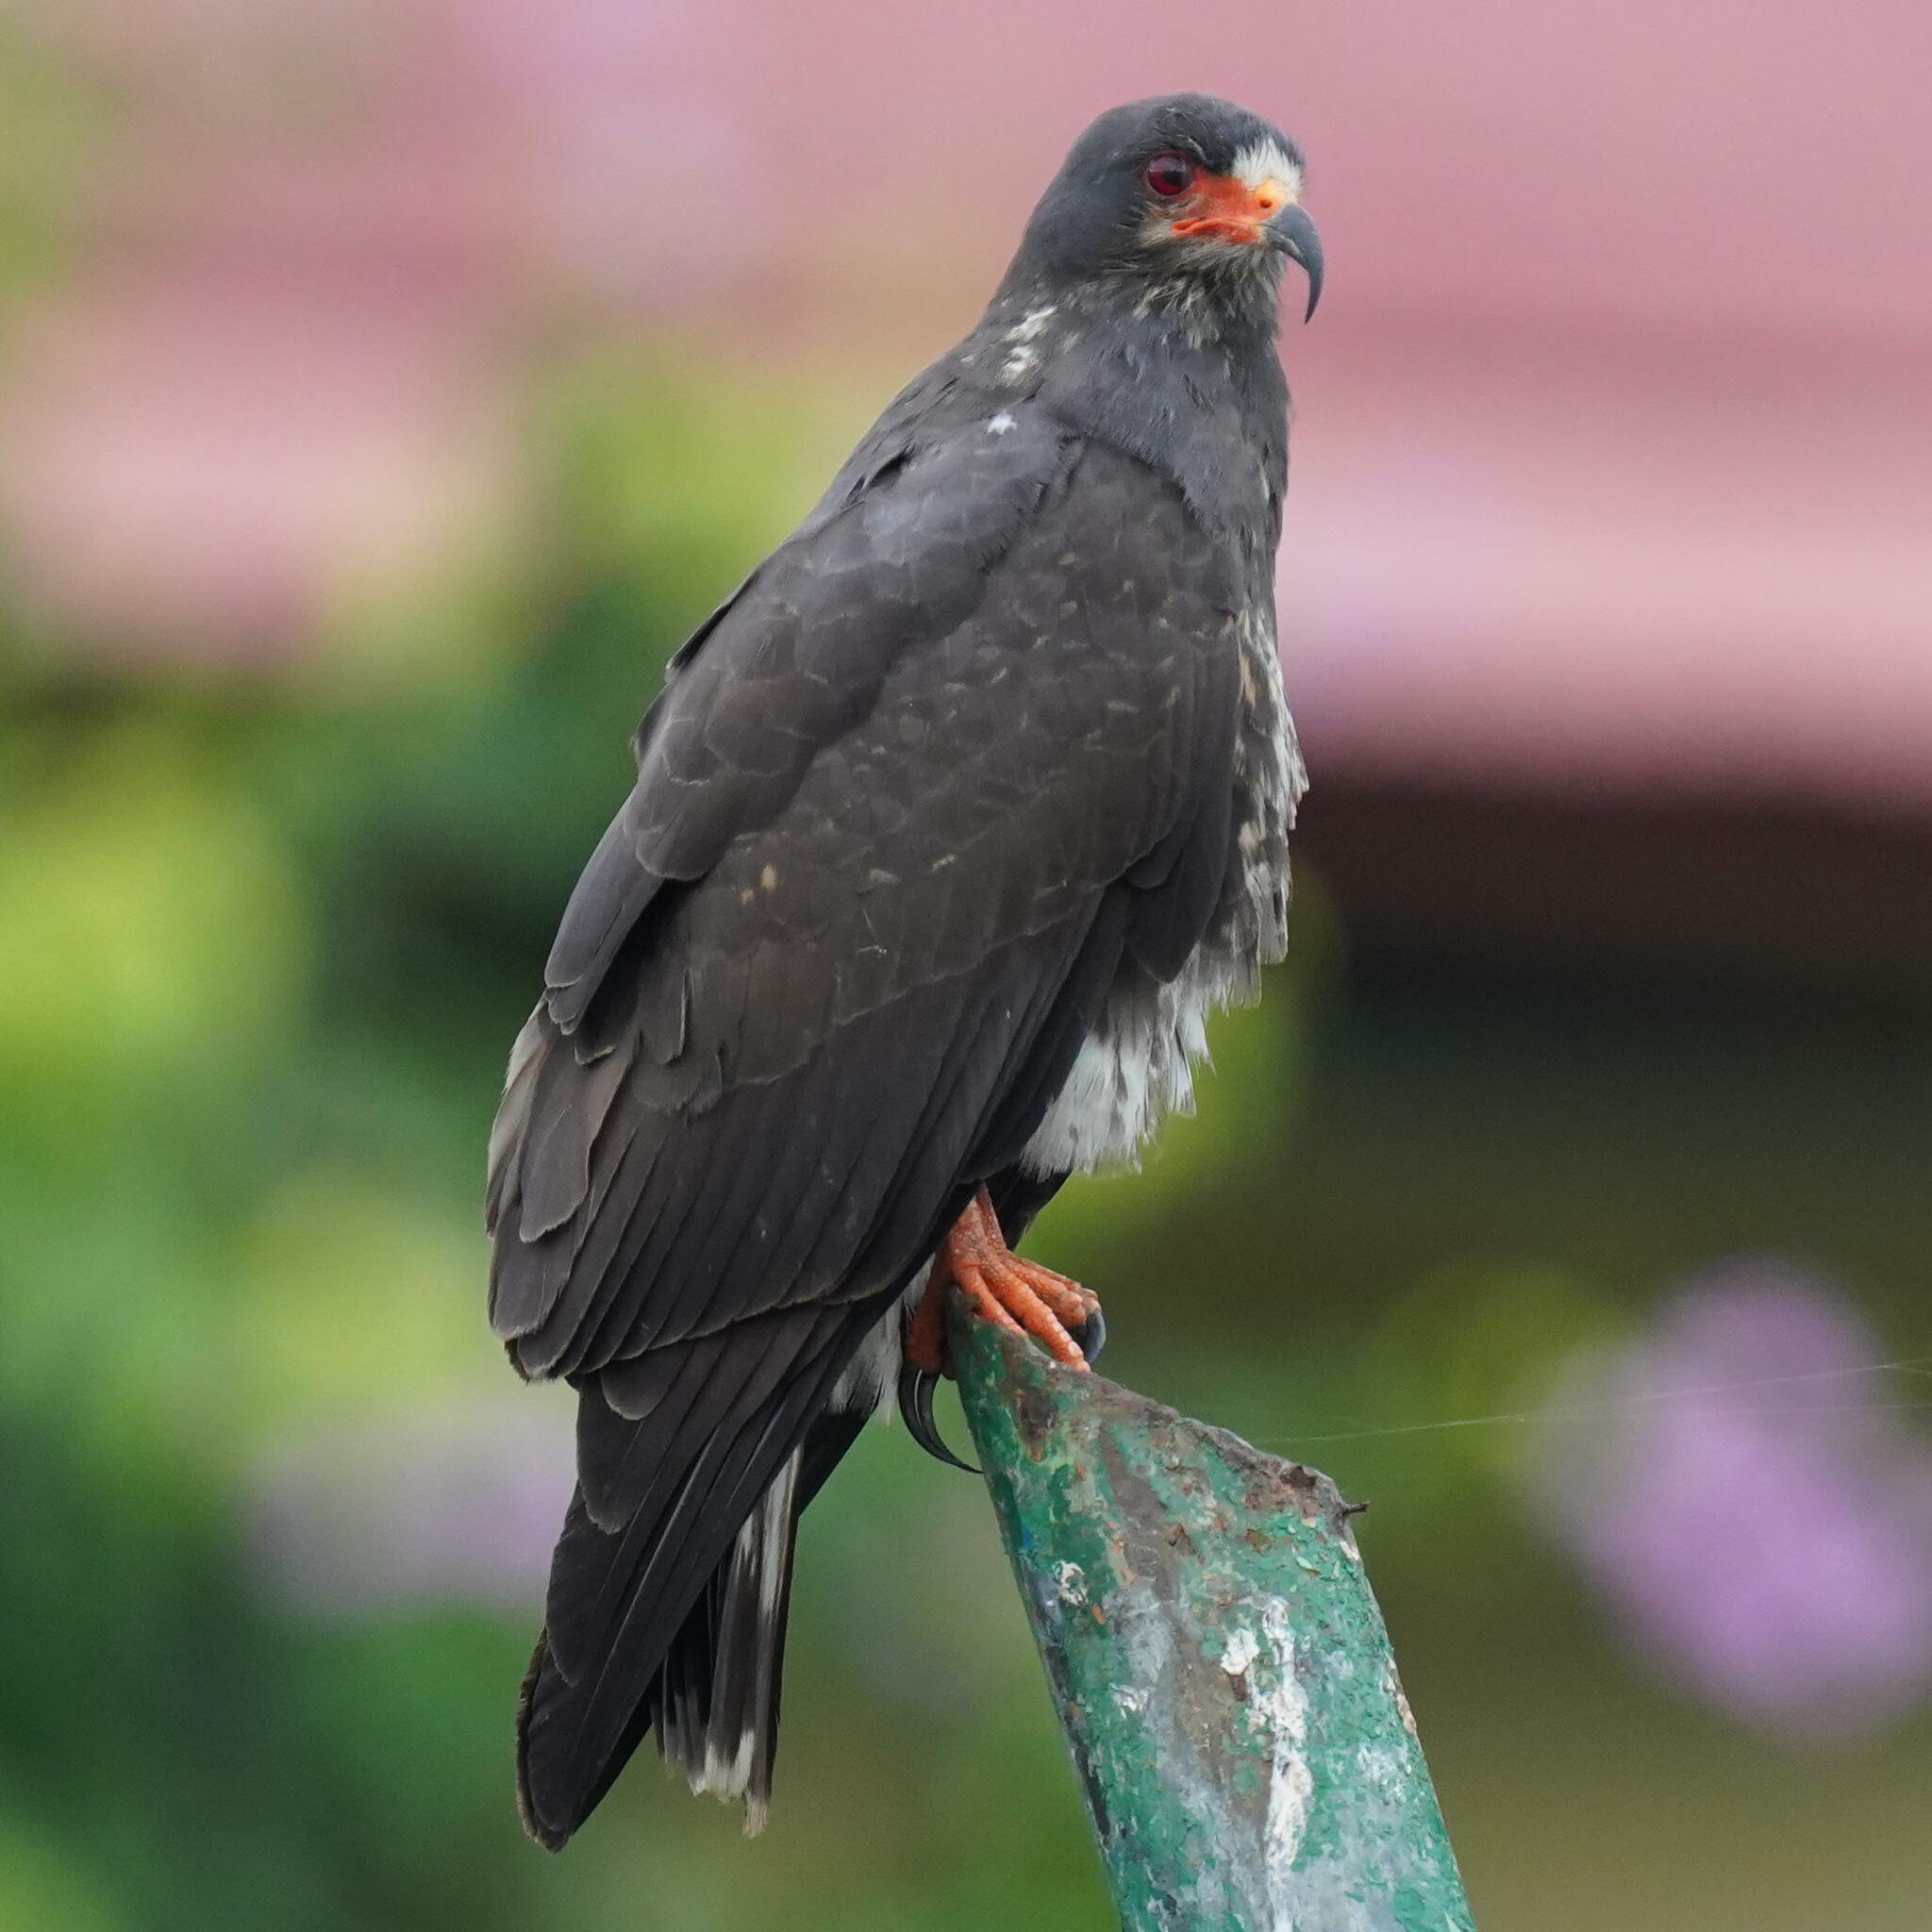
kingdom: Animalia
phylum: Chordata
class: Aves
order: Accipitriformes
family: Accipitridae
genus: Rostrhamus
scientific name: Rostrhamus sociabilis
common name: Snail kite
